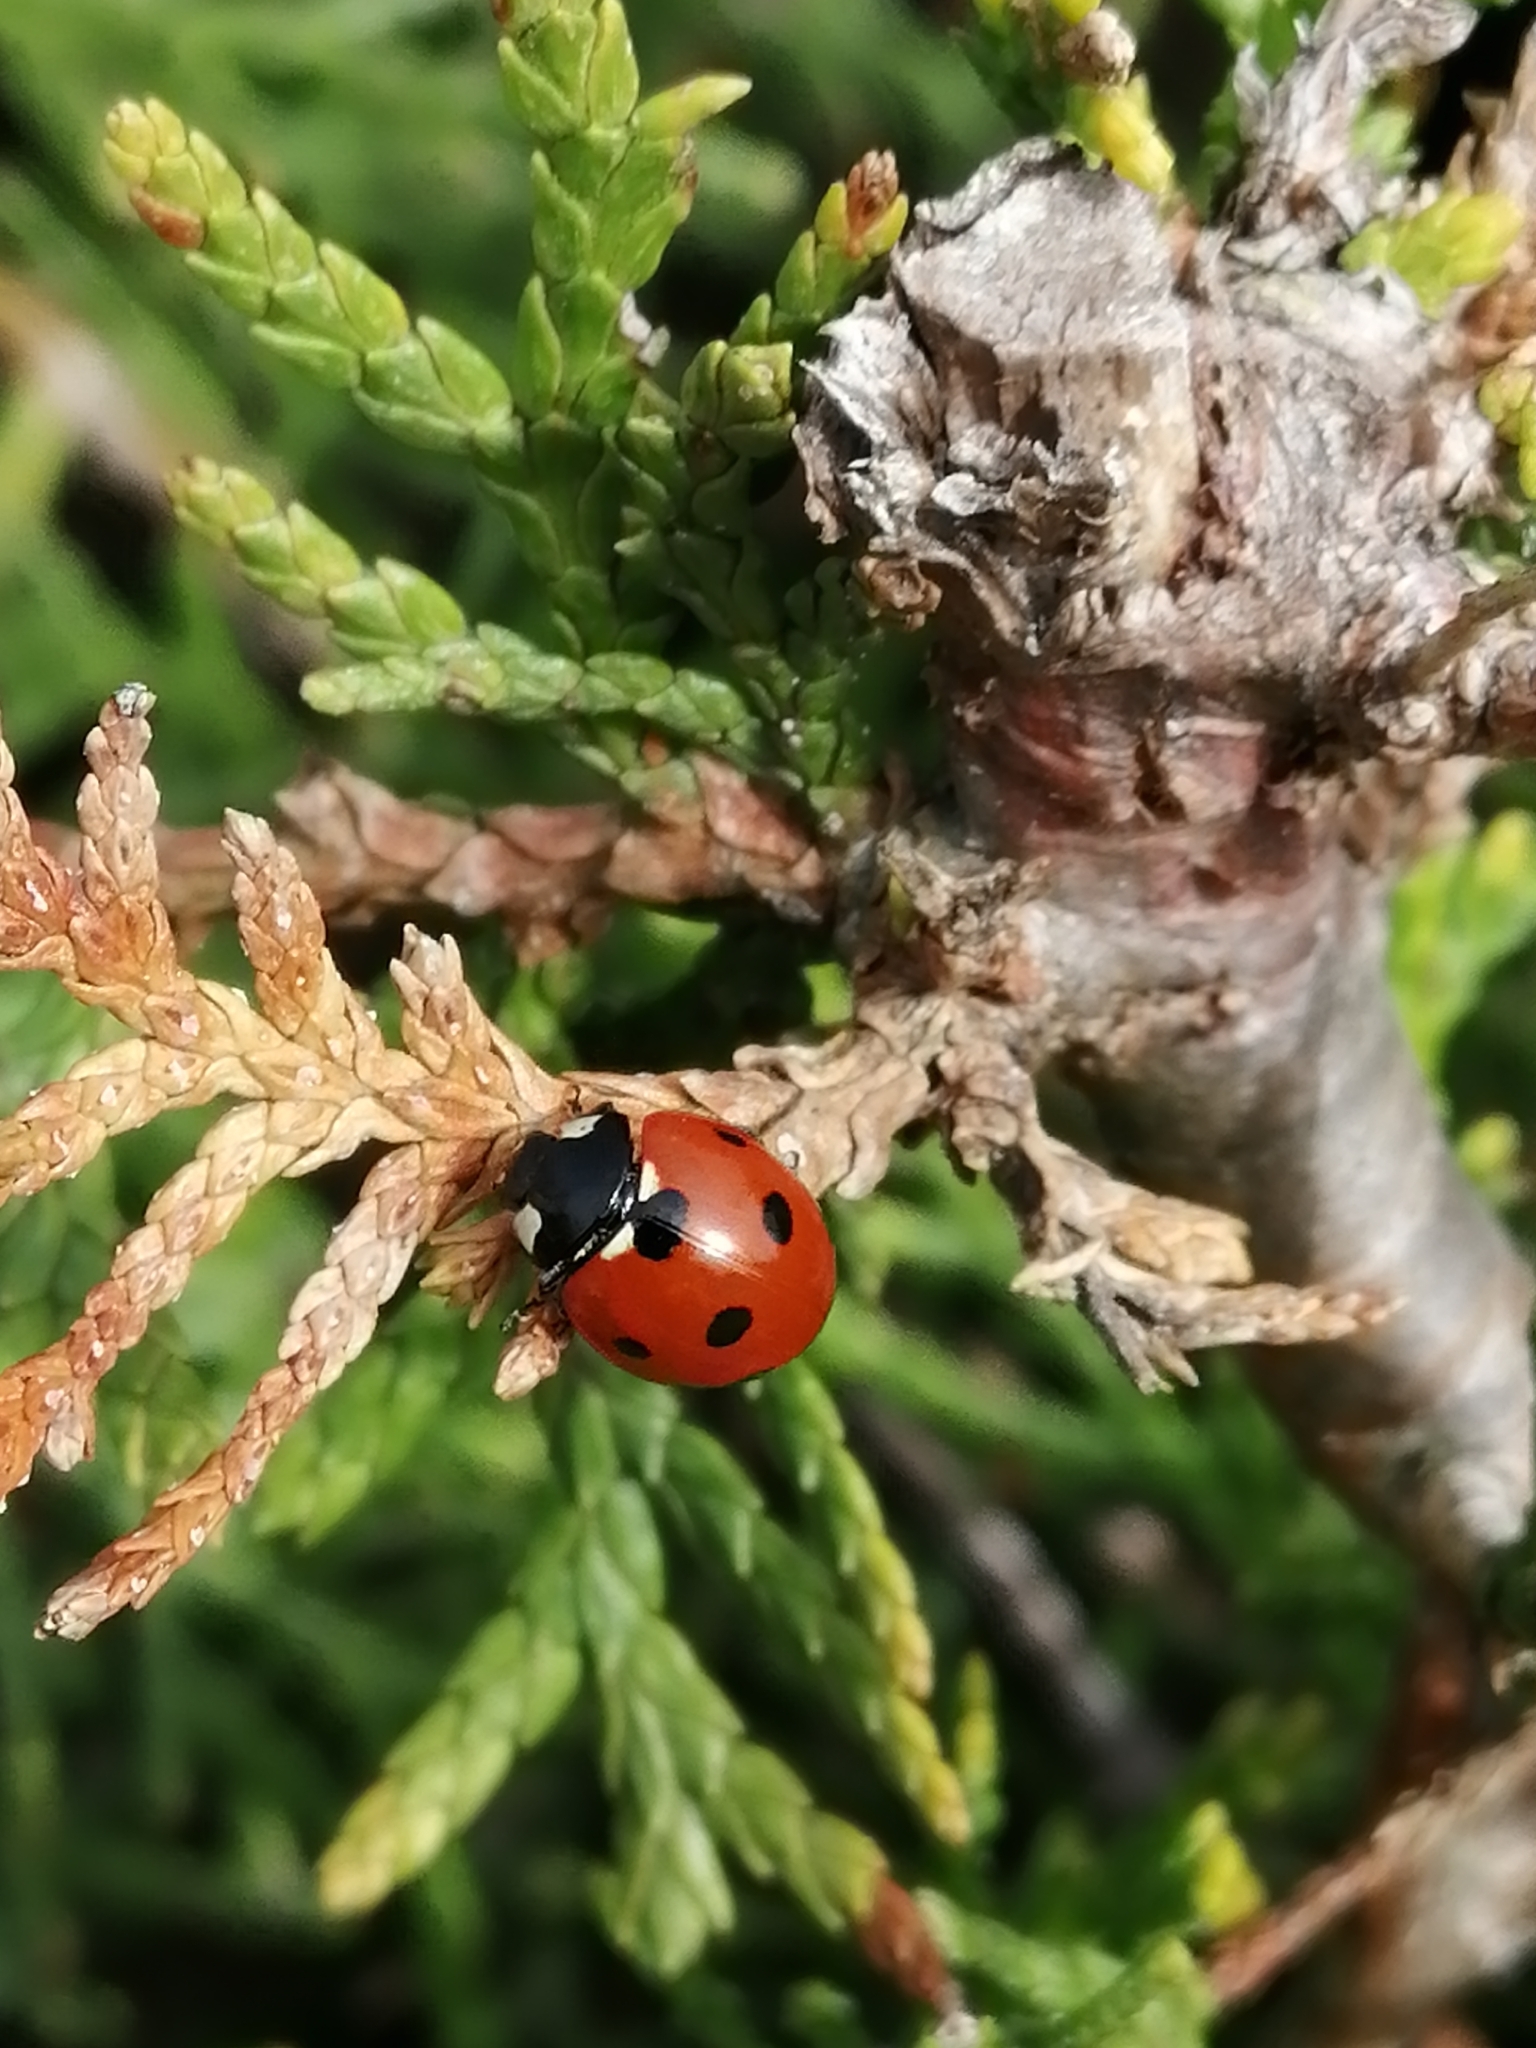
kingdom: Animalia
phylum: Arthropoda
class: Insecta
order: Coleoptera
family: Coccinellidae
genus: Coccinella
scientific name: Coccinella septempunctata
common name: Sevenspotted lady beetle
